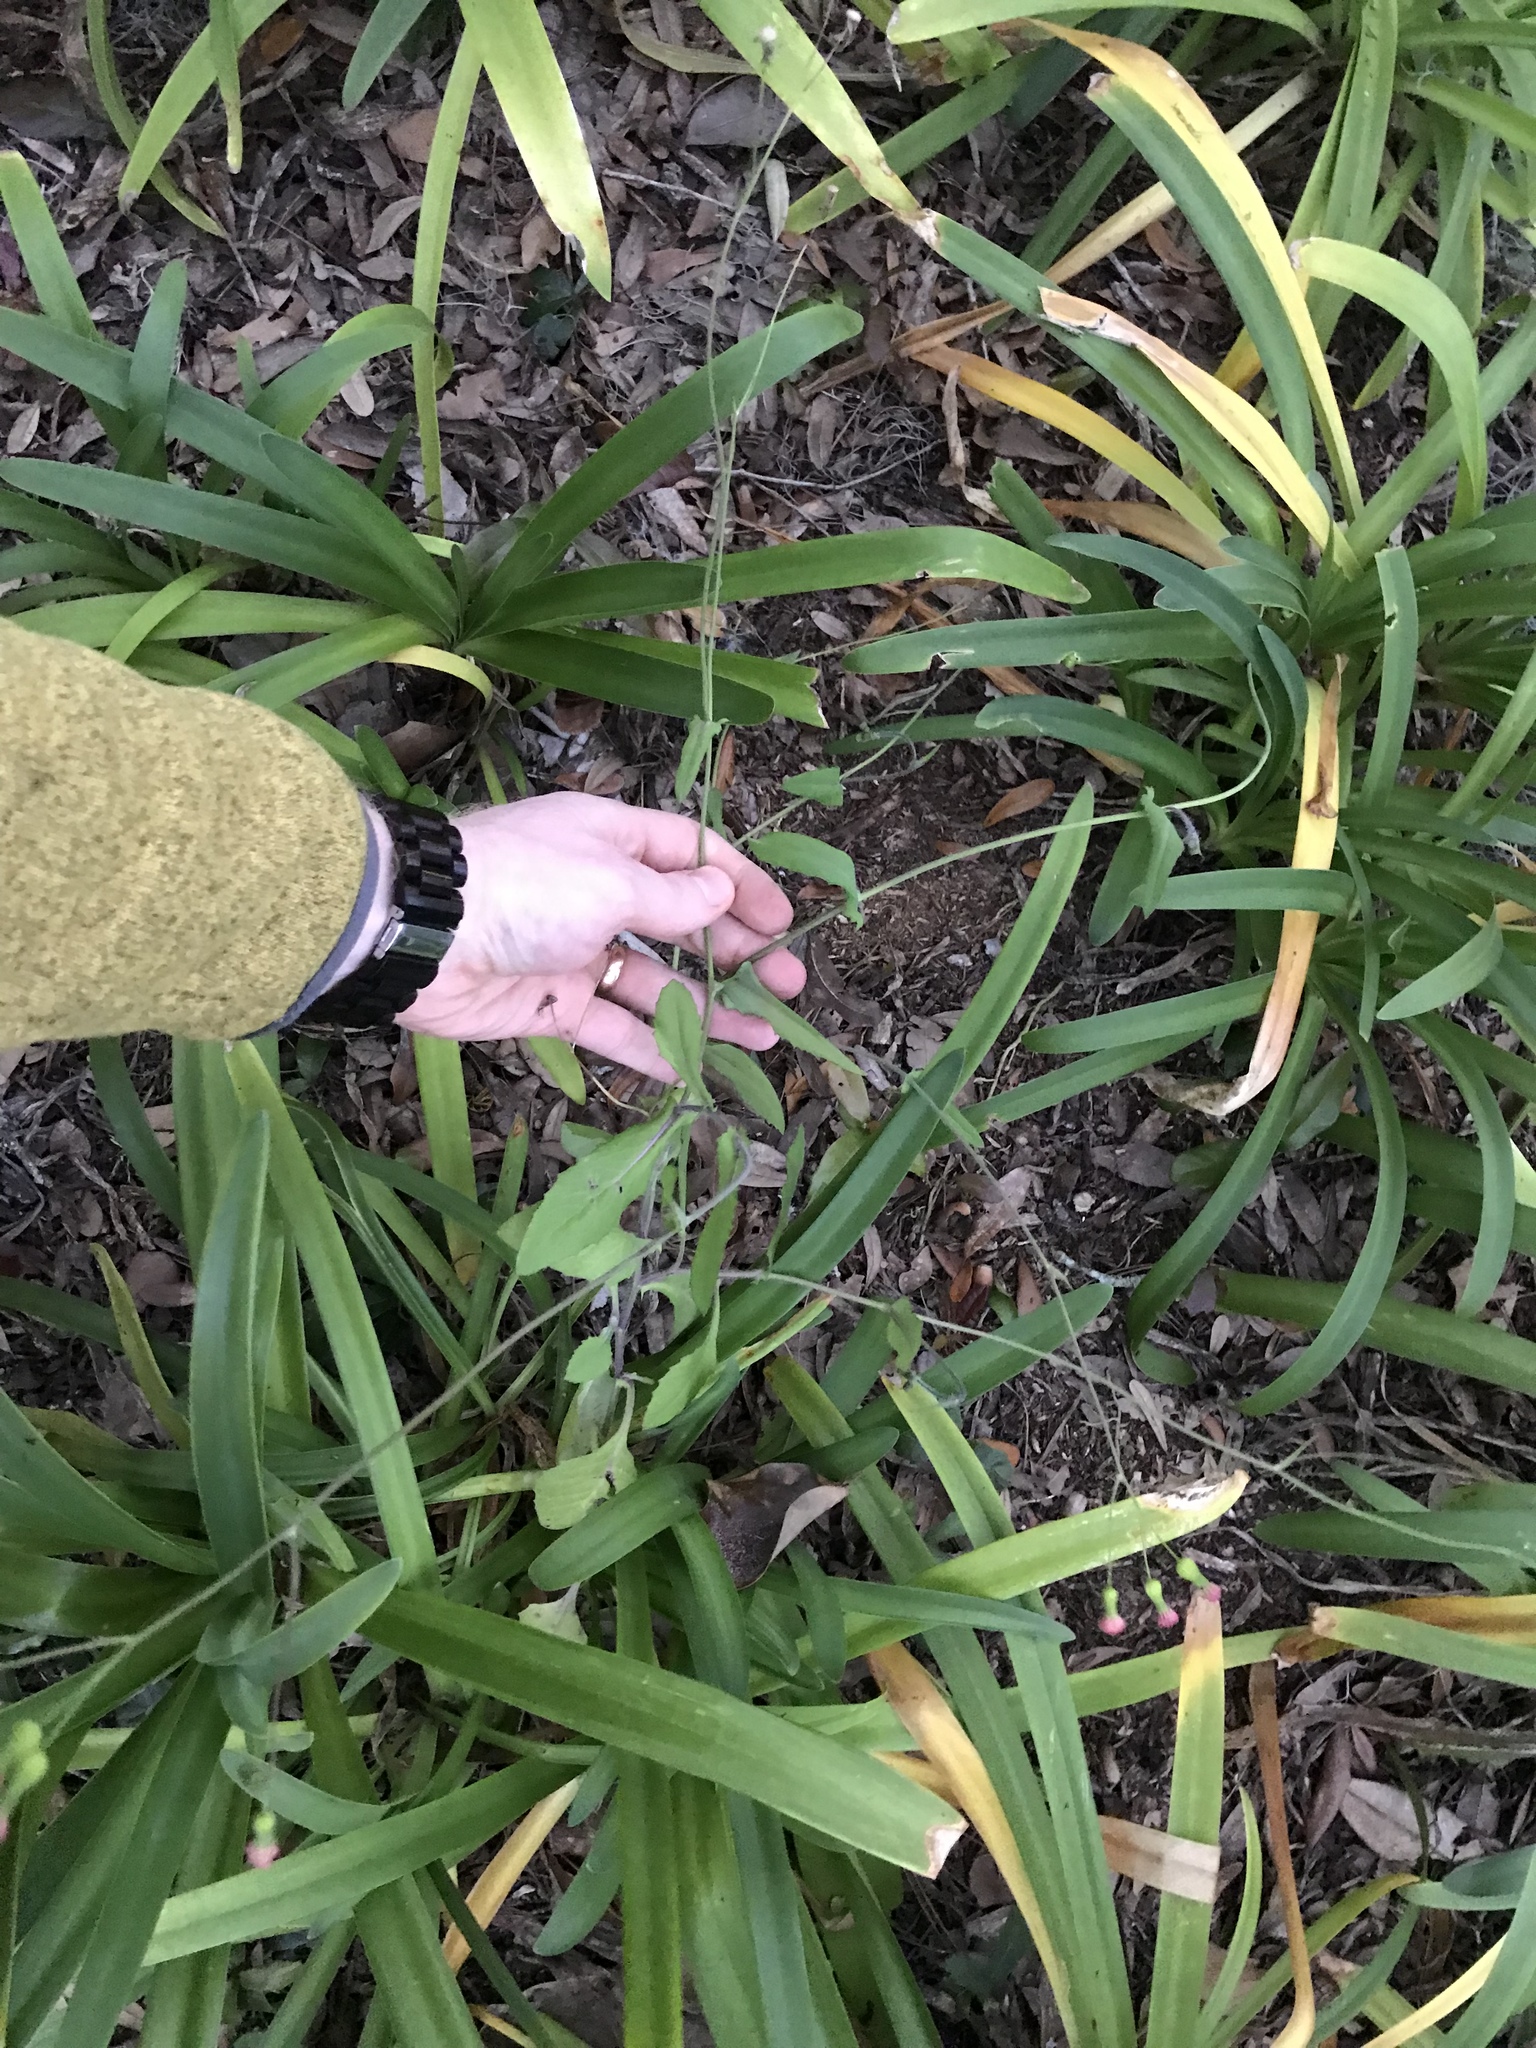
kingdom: Plantae
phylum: Tracheophyta
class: Magnoliopsida
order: Asterales
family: Asteraceae
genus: Emilia
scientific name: Emilia fosbergii
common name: Florida tasselflower
